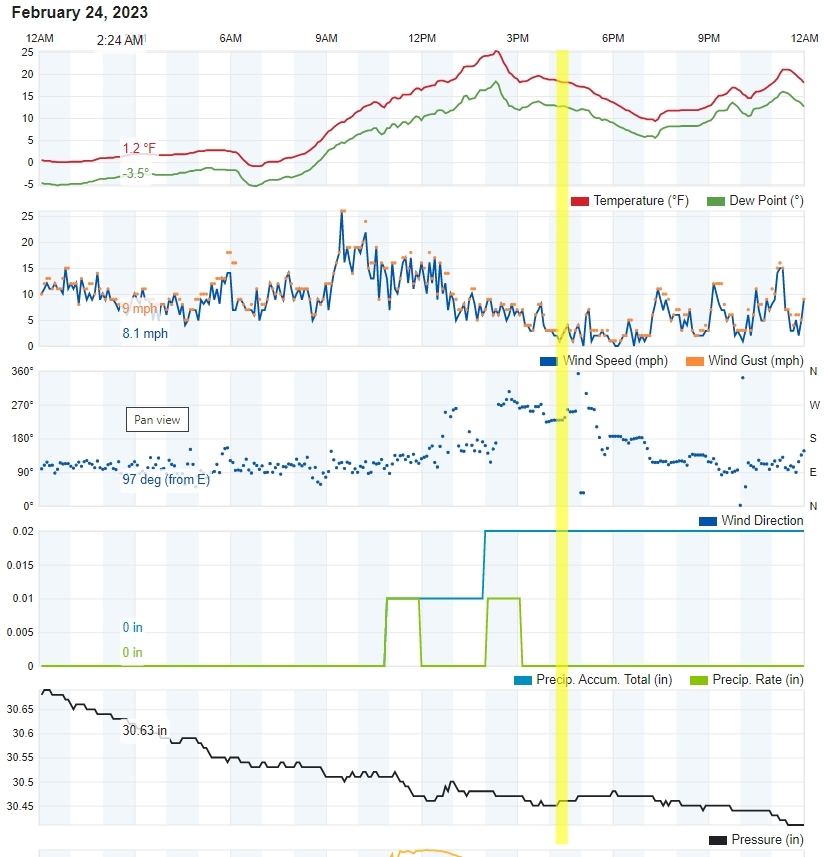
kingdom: Animalia
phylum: Chordata
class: Mammalia
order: Carnivora
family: Felidae
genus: Puma
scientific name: Puma concolor
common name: Puma
